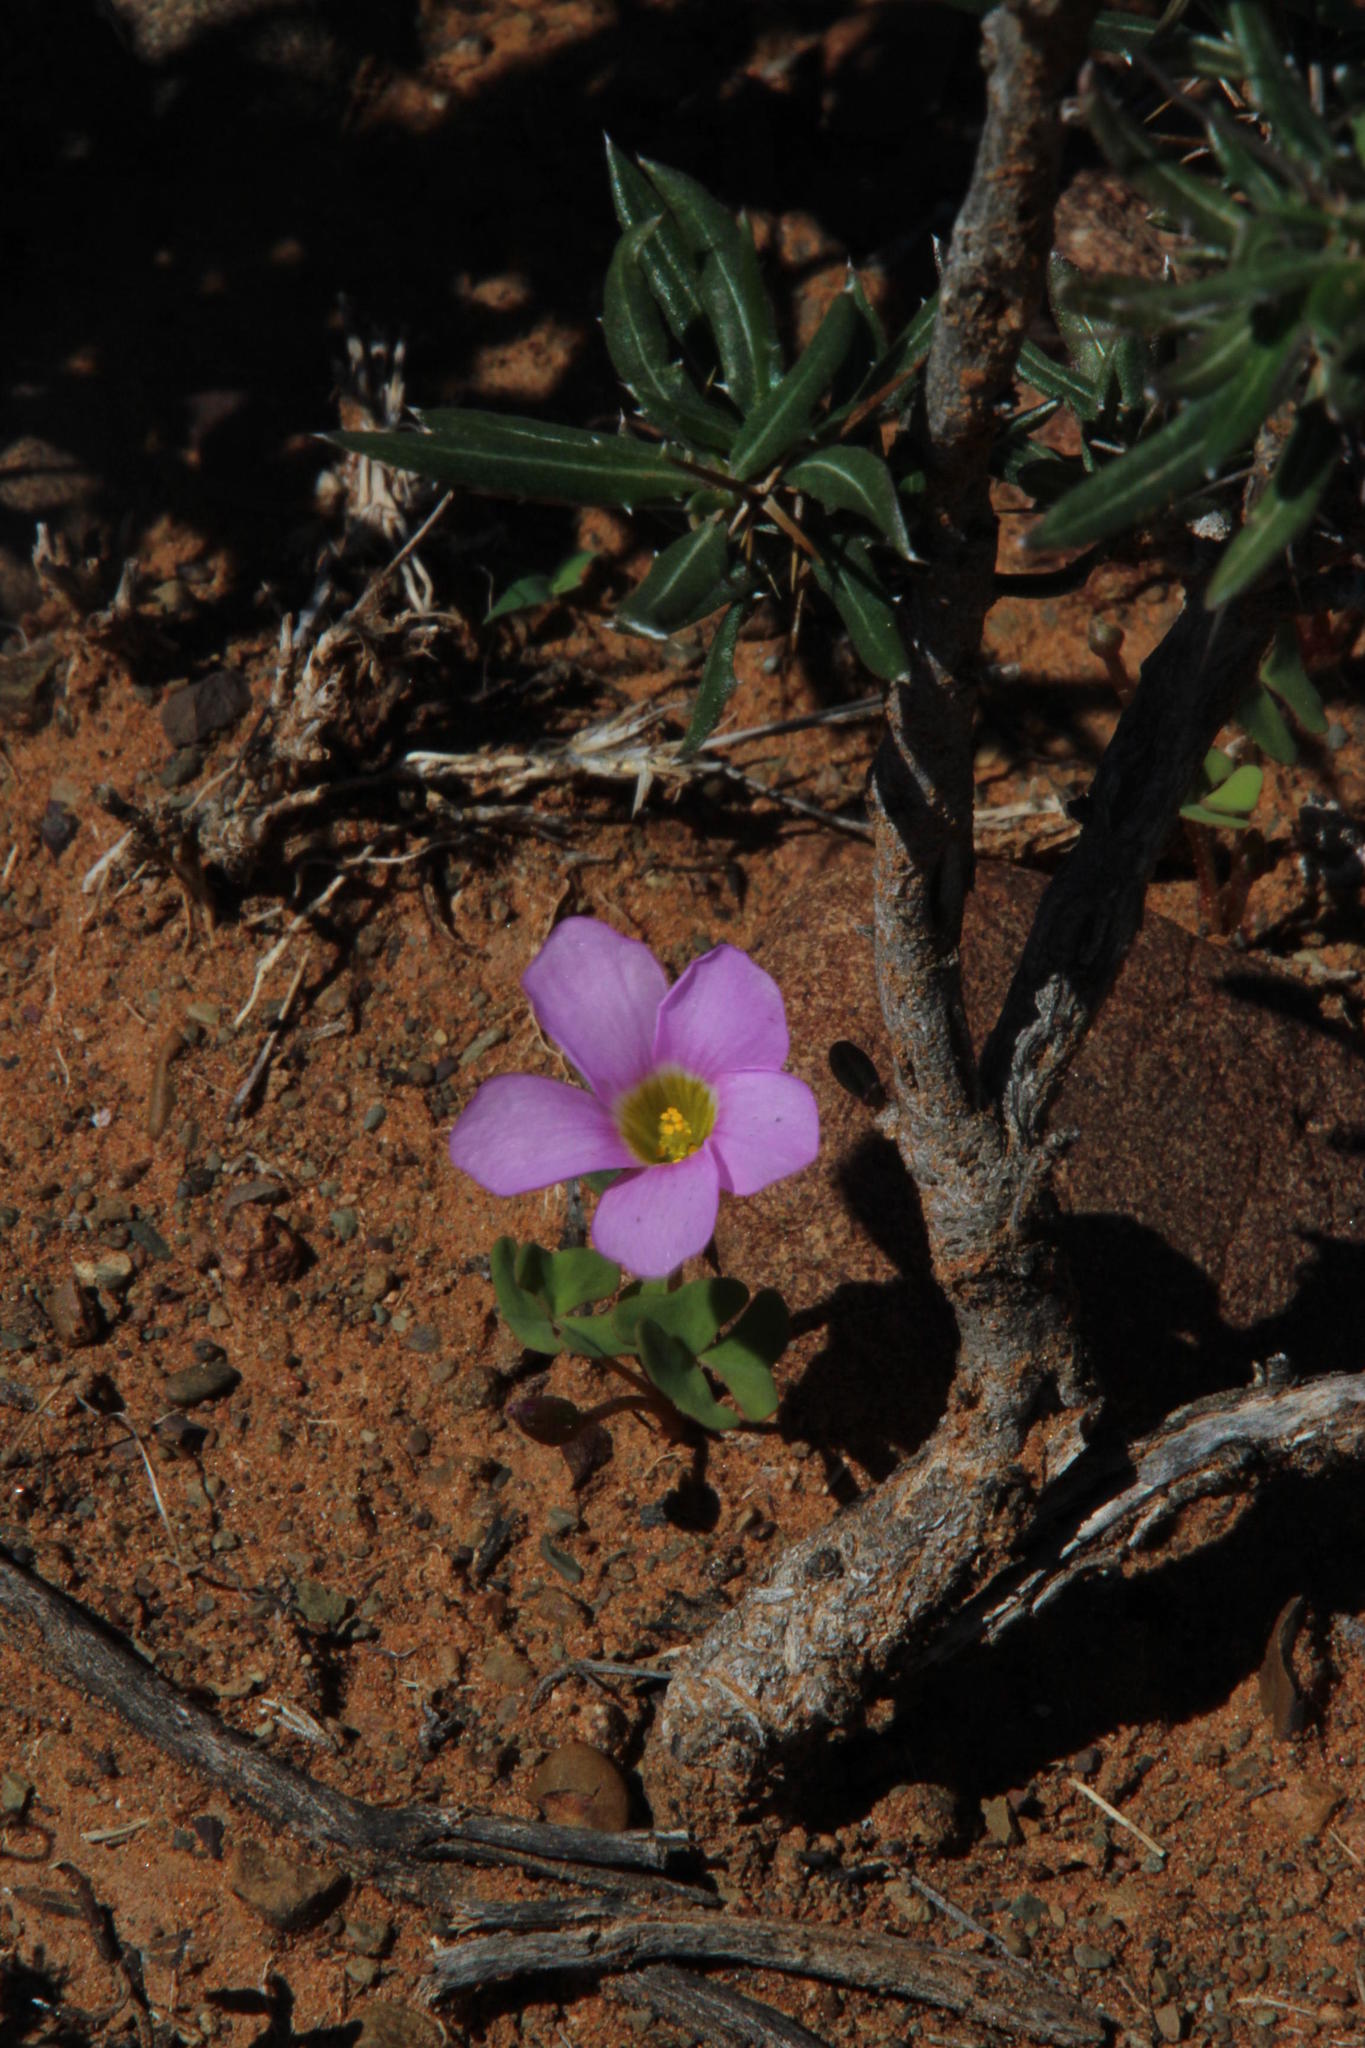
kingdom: Plantae
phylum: Tracheophyta
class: Magnoliopsida
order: Oxalidales
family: Oxalidaceae
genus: Oxalis
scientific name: Oxalis obliquifolia
